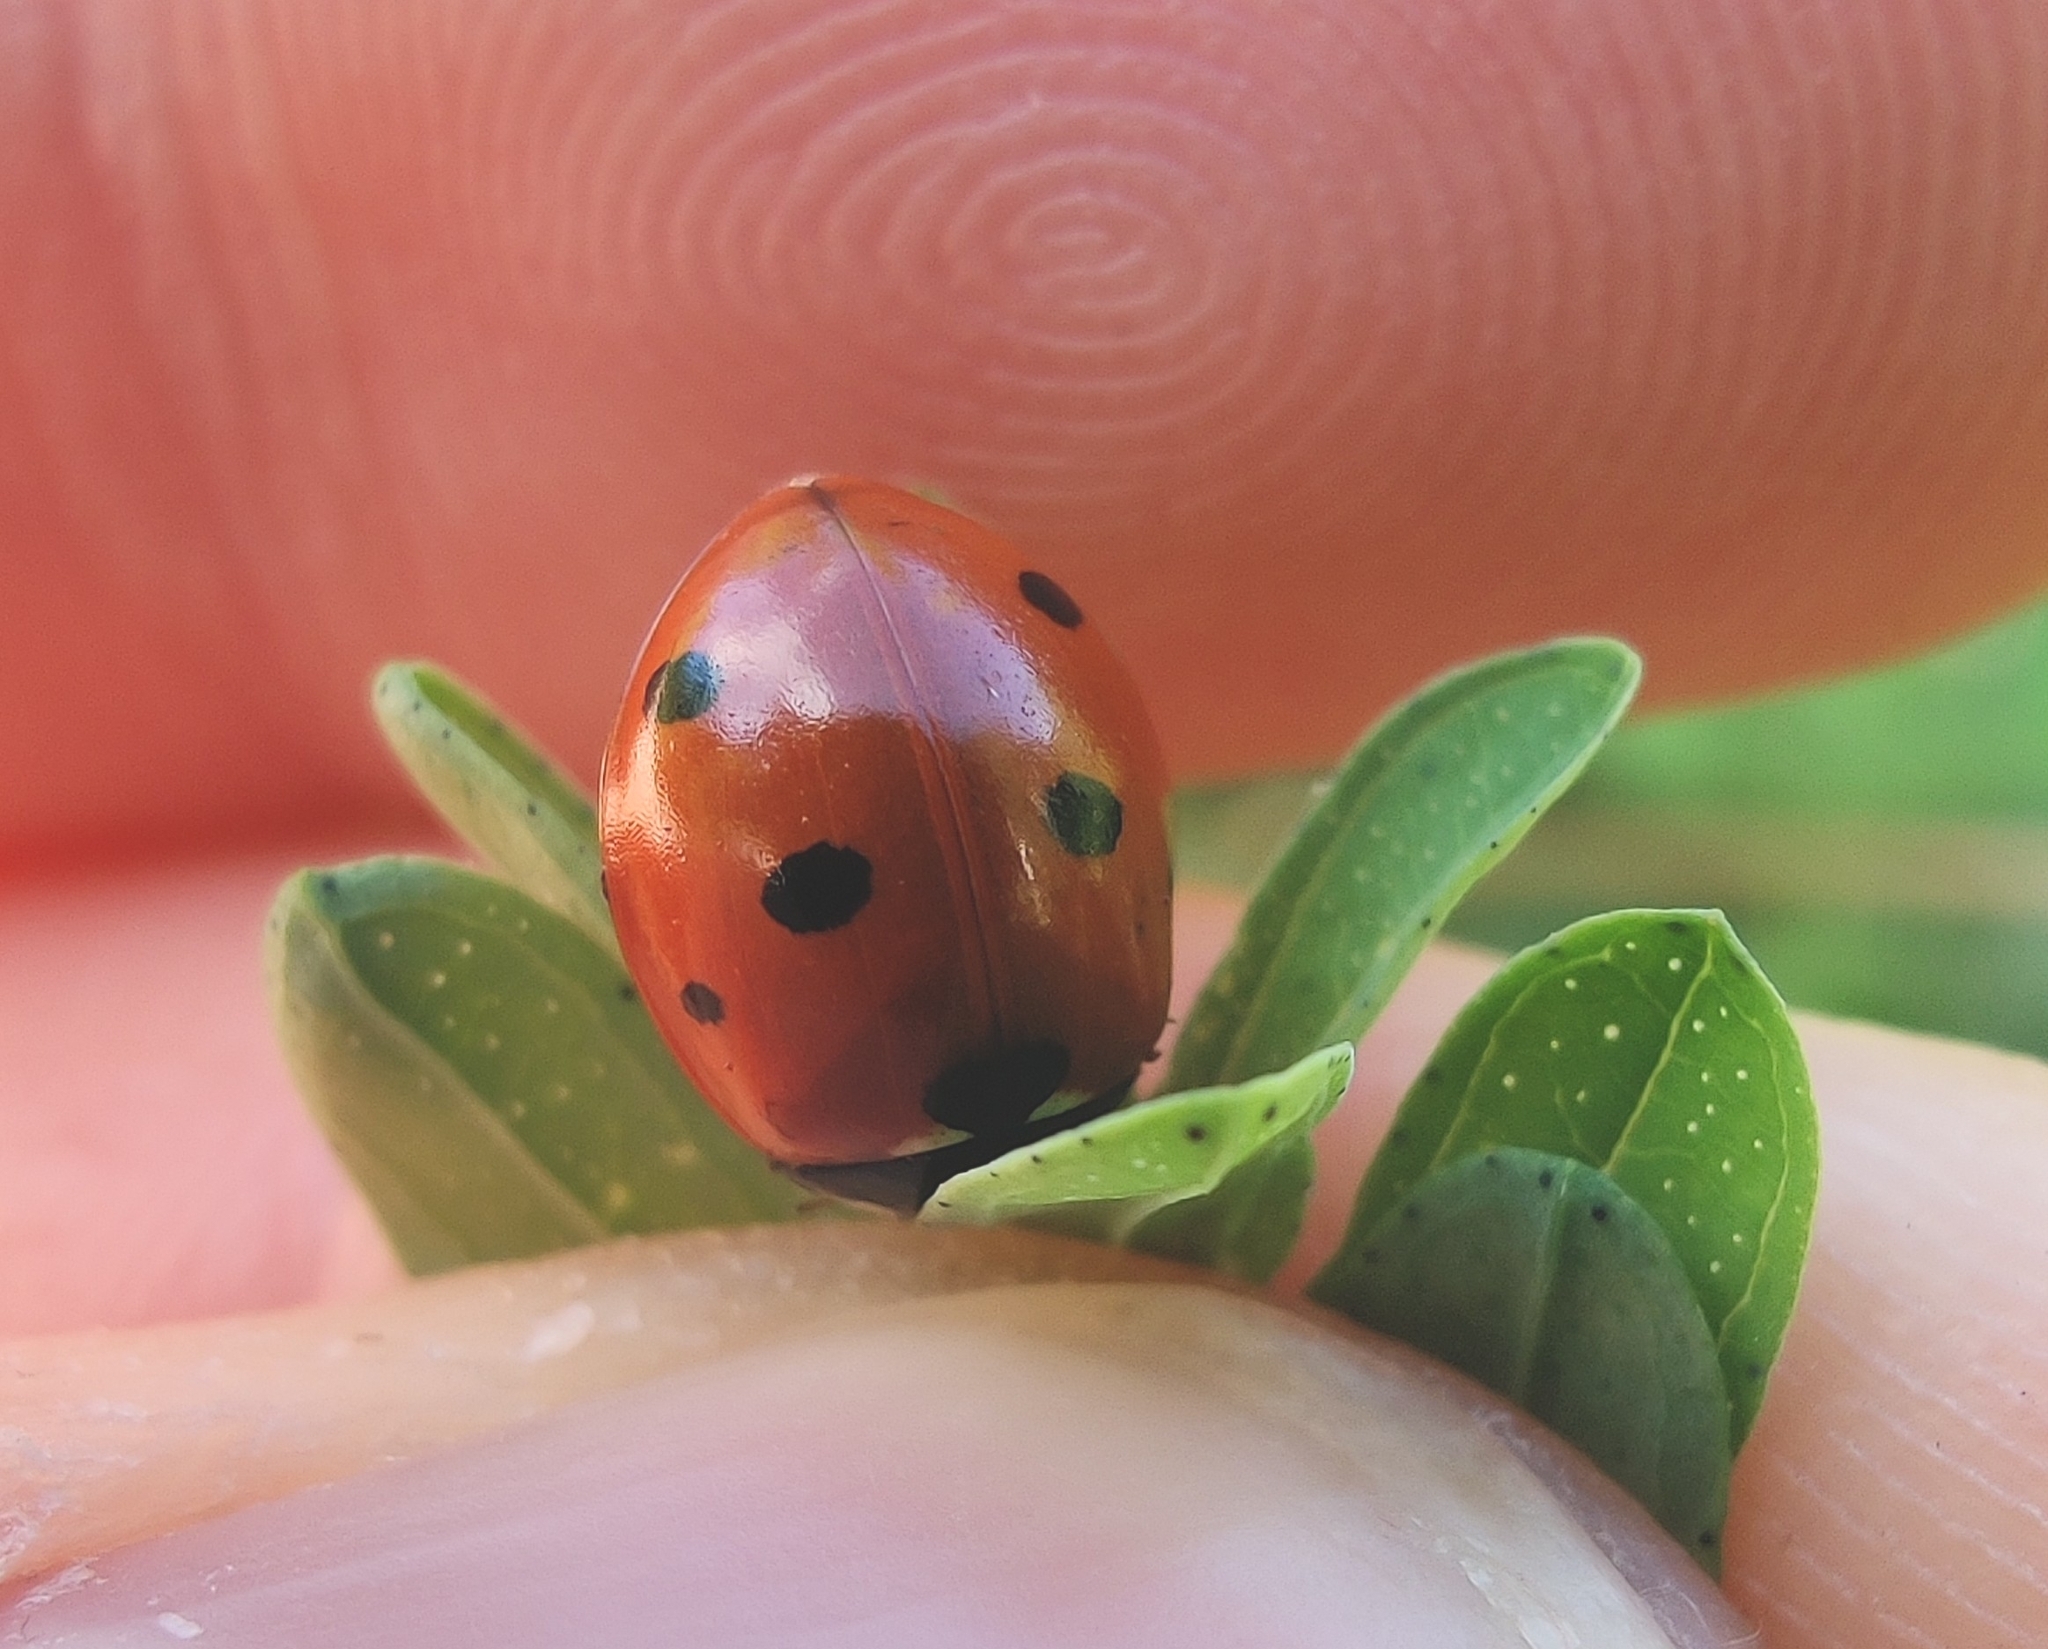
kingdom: Animalia
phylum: Arthropoda
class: Insecta
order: Coleoptera
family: Coccinellidae
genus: Coccinella
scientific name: Coccinella septempunctata
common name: Sevenspotted lady beetle
